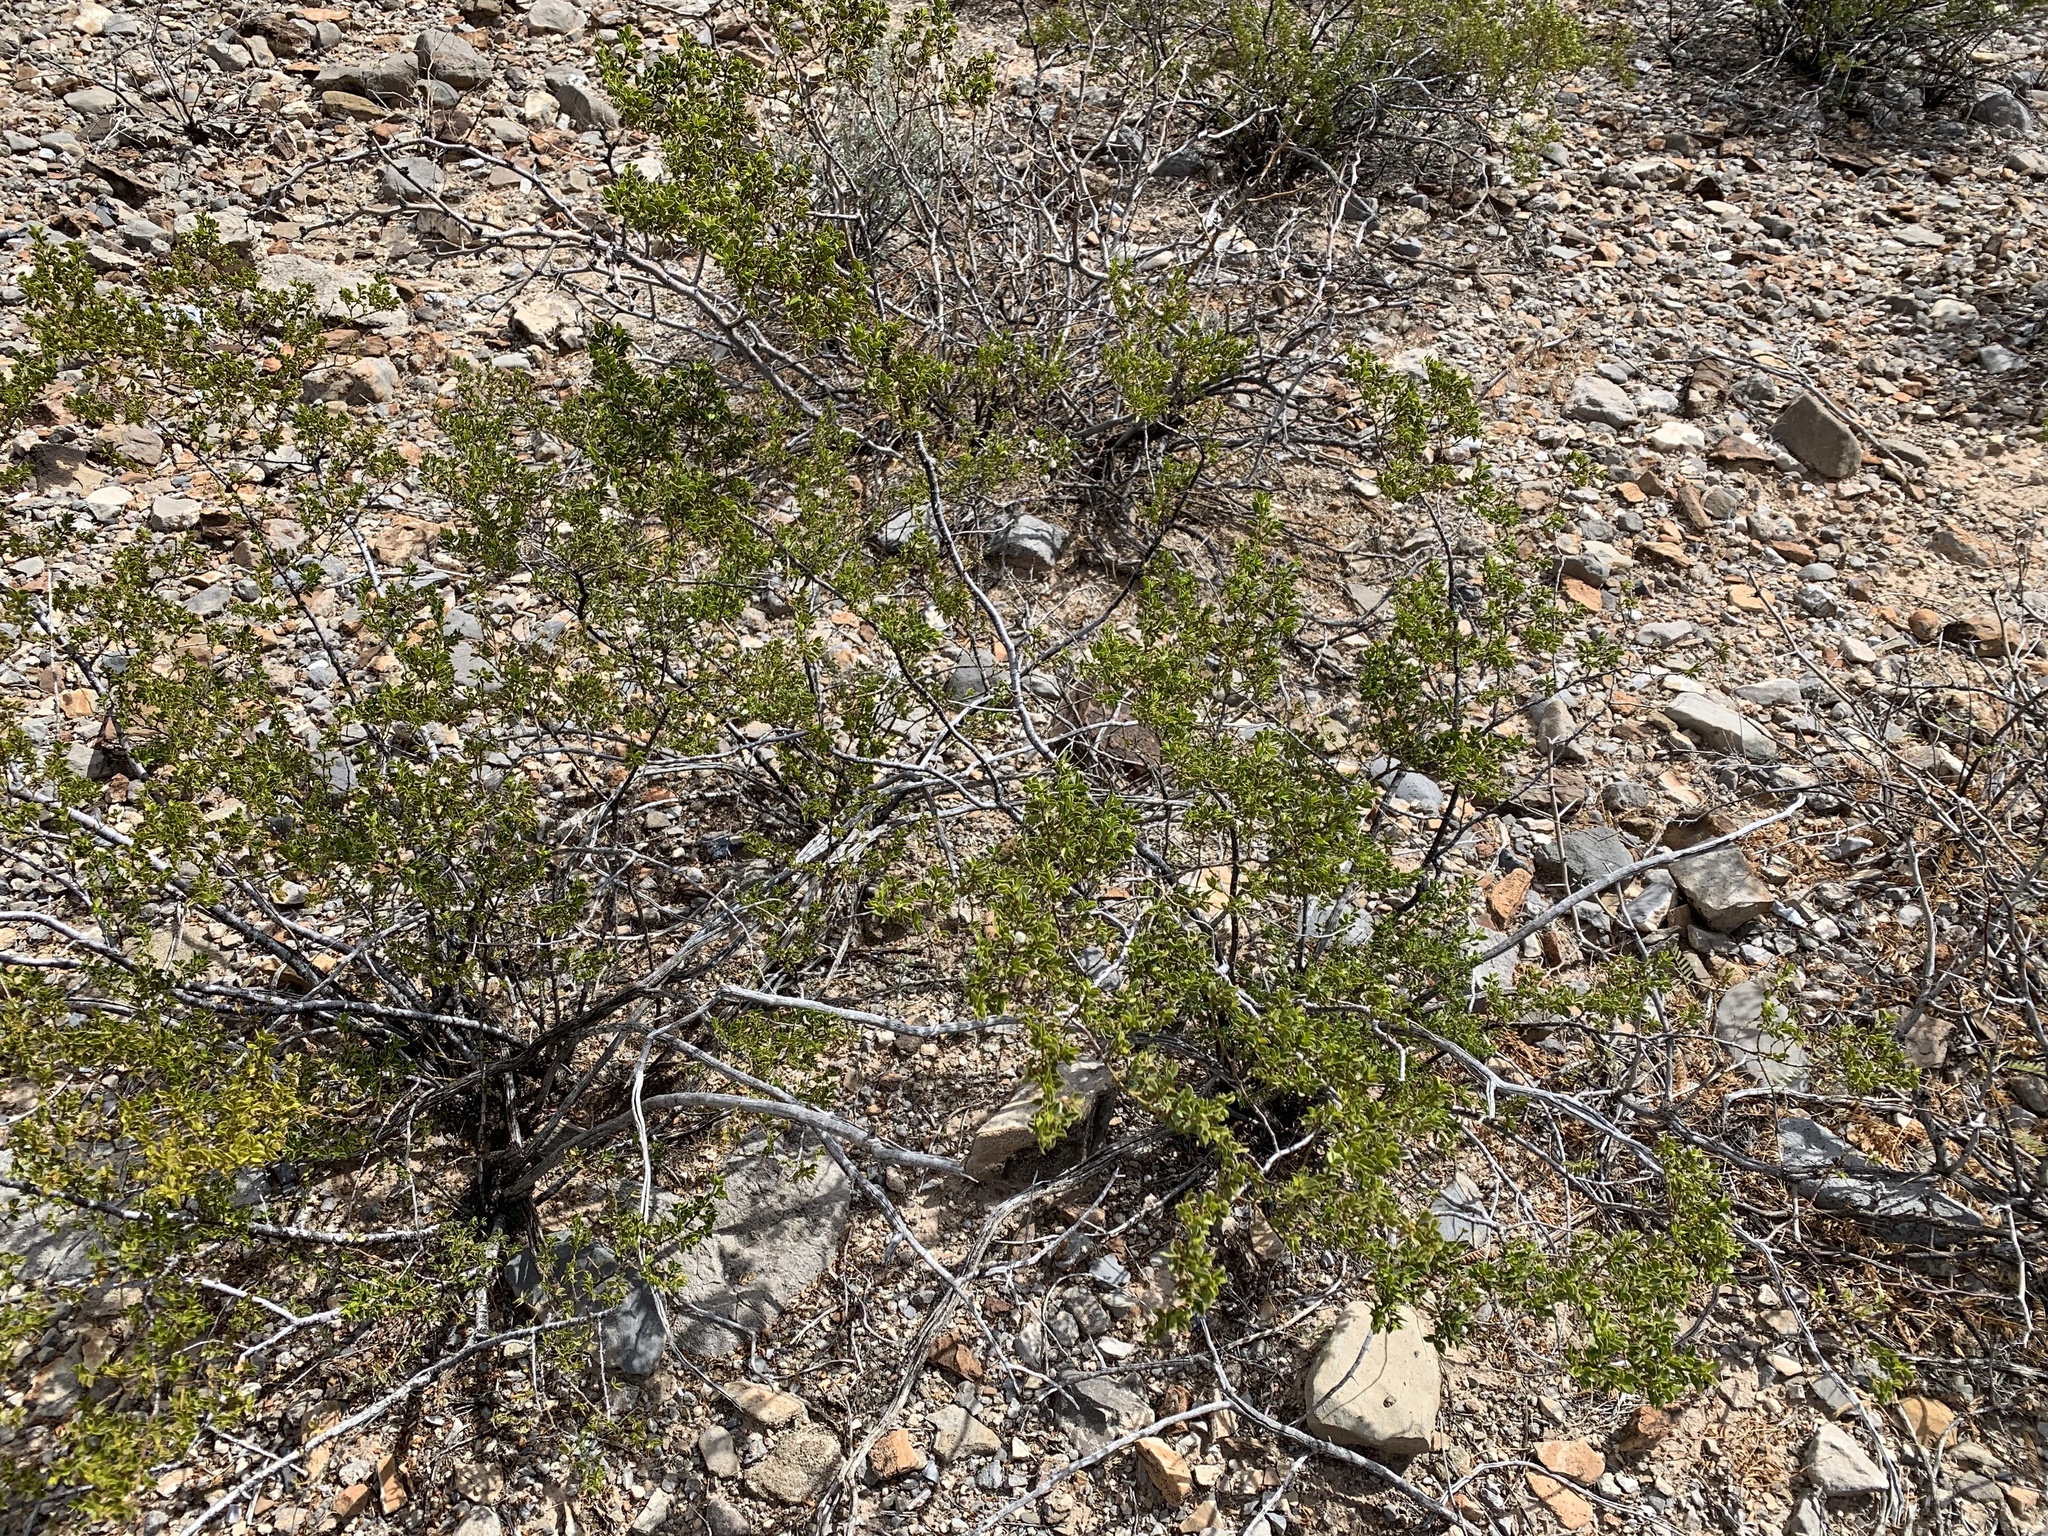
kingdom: Plantae
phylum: Tracheophyta
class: Magnoliopsida
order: Zygophyllales
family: Zygophyllaceae
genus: Larrea
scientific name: Larrea tridentata
